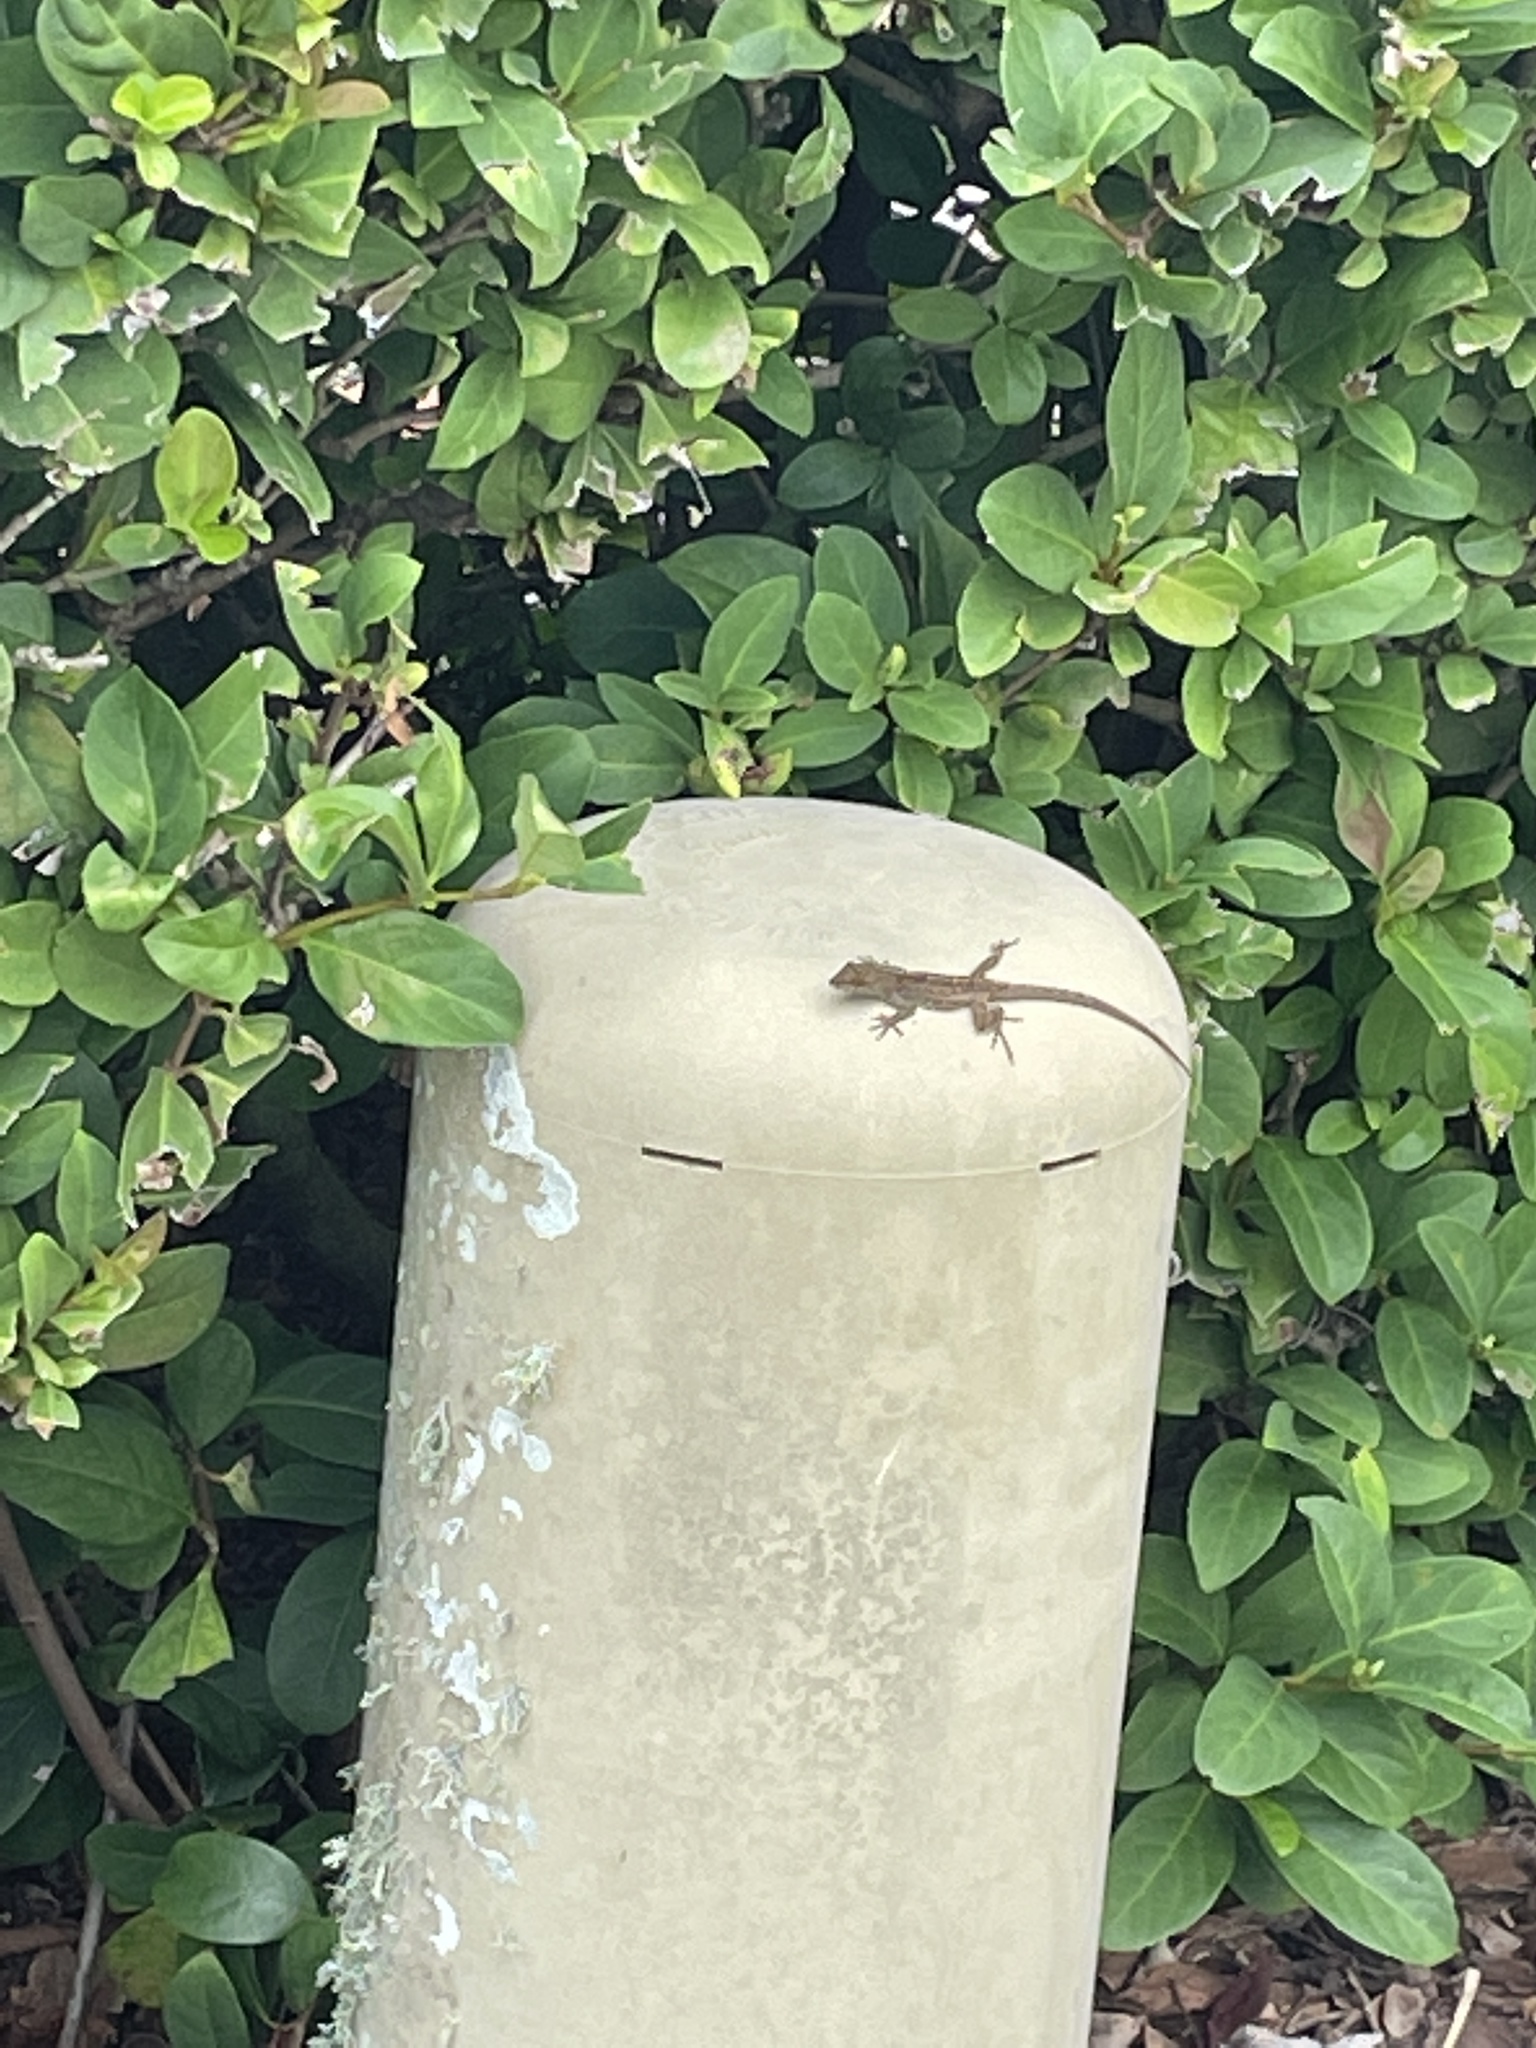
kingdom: Animalia
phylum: Chordata
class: Squamata
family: Dactyloidae
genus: Anolis
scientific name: Anolis sagrei
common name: Brown anole
